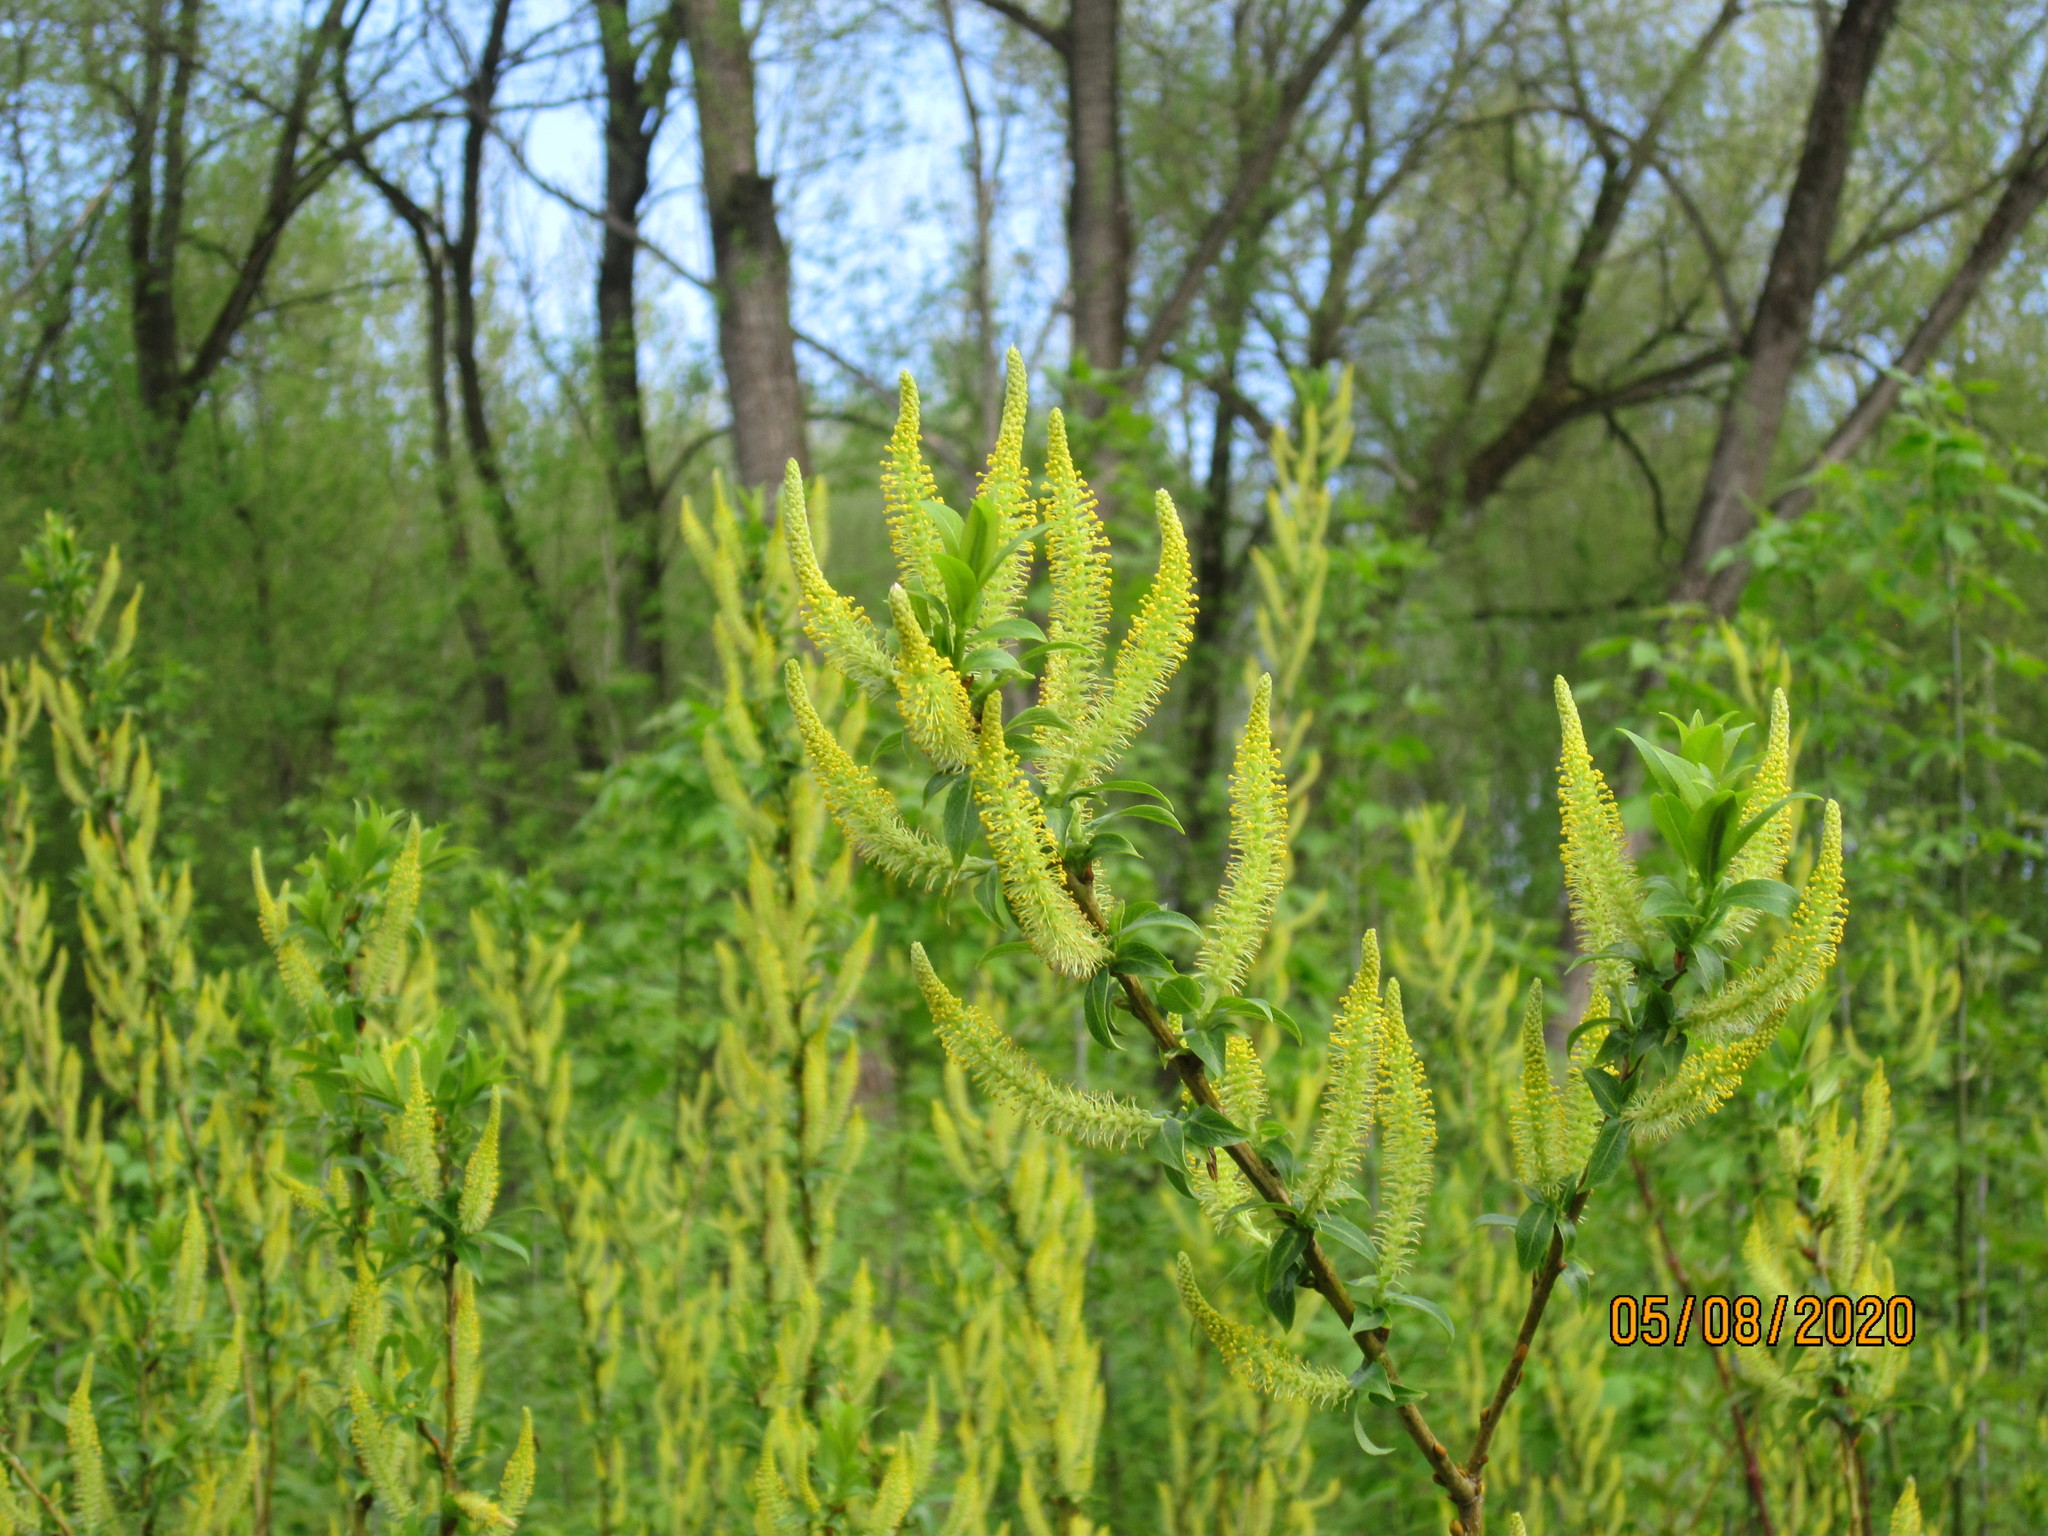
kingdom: Plantae
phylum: Tracheophyta
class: Magnoliopsida
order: Malpighiales
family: Salicaceae
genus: Salix
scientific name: Salix triandra
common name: Almond willow
